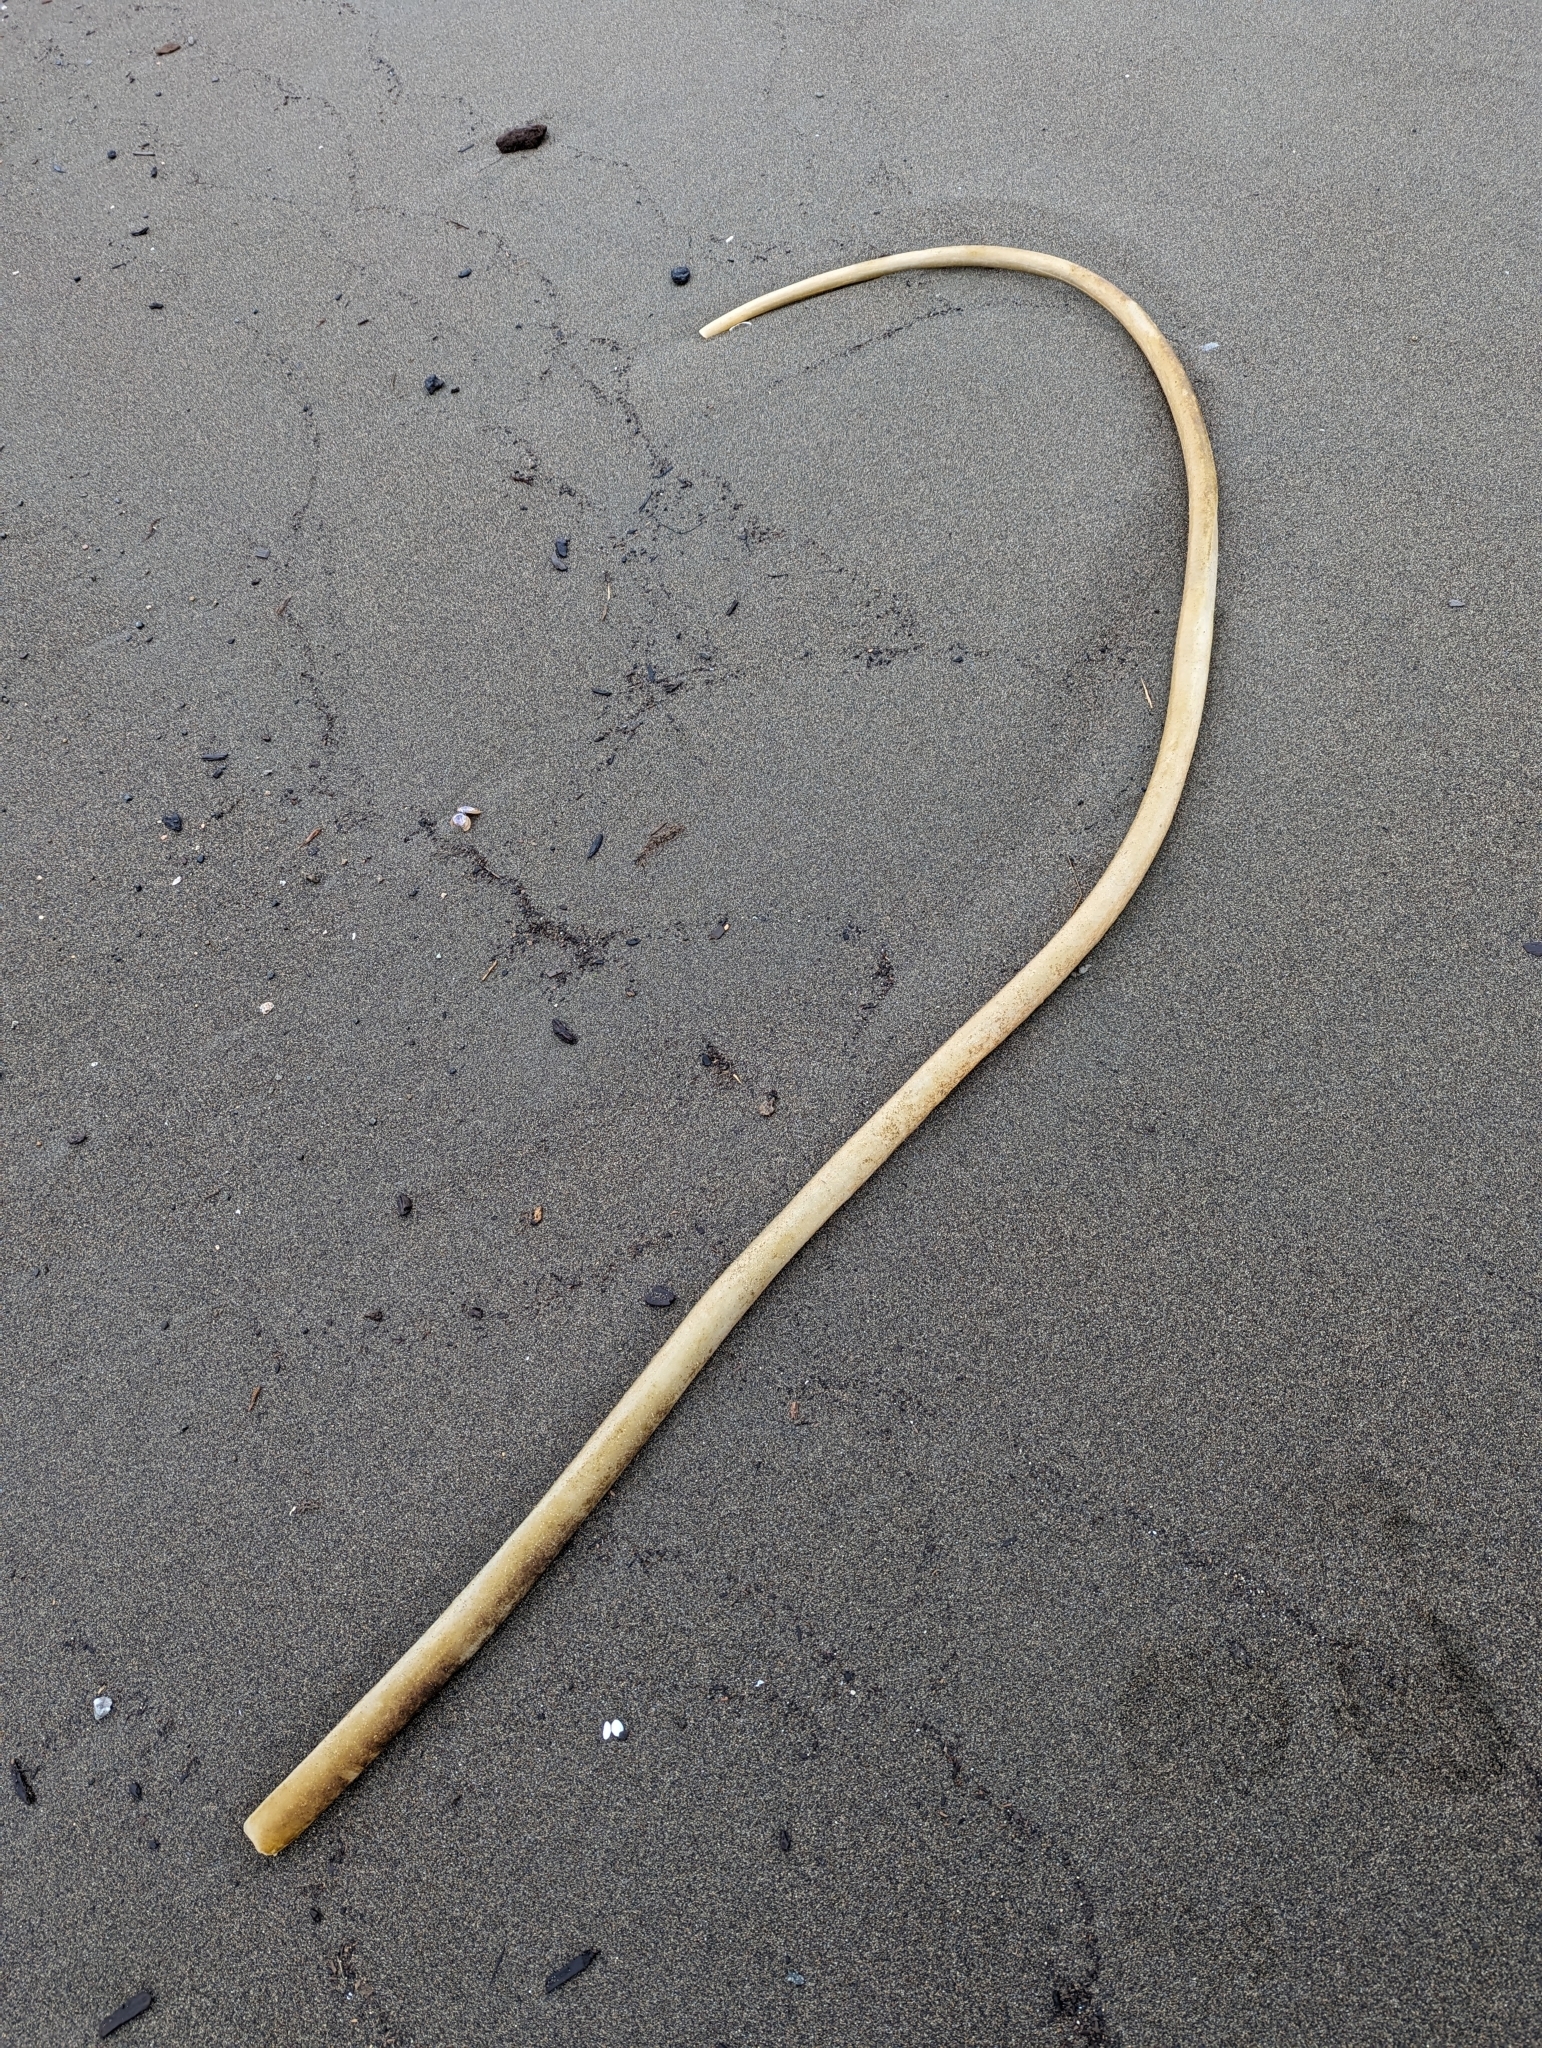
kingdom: Chromista
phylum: Ochrophyta
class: Phaeophyceae
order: Laminariales
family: Laminariaceae
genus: Nereocystis
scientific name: Nereocystis luetkeana
